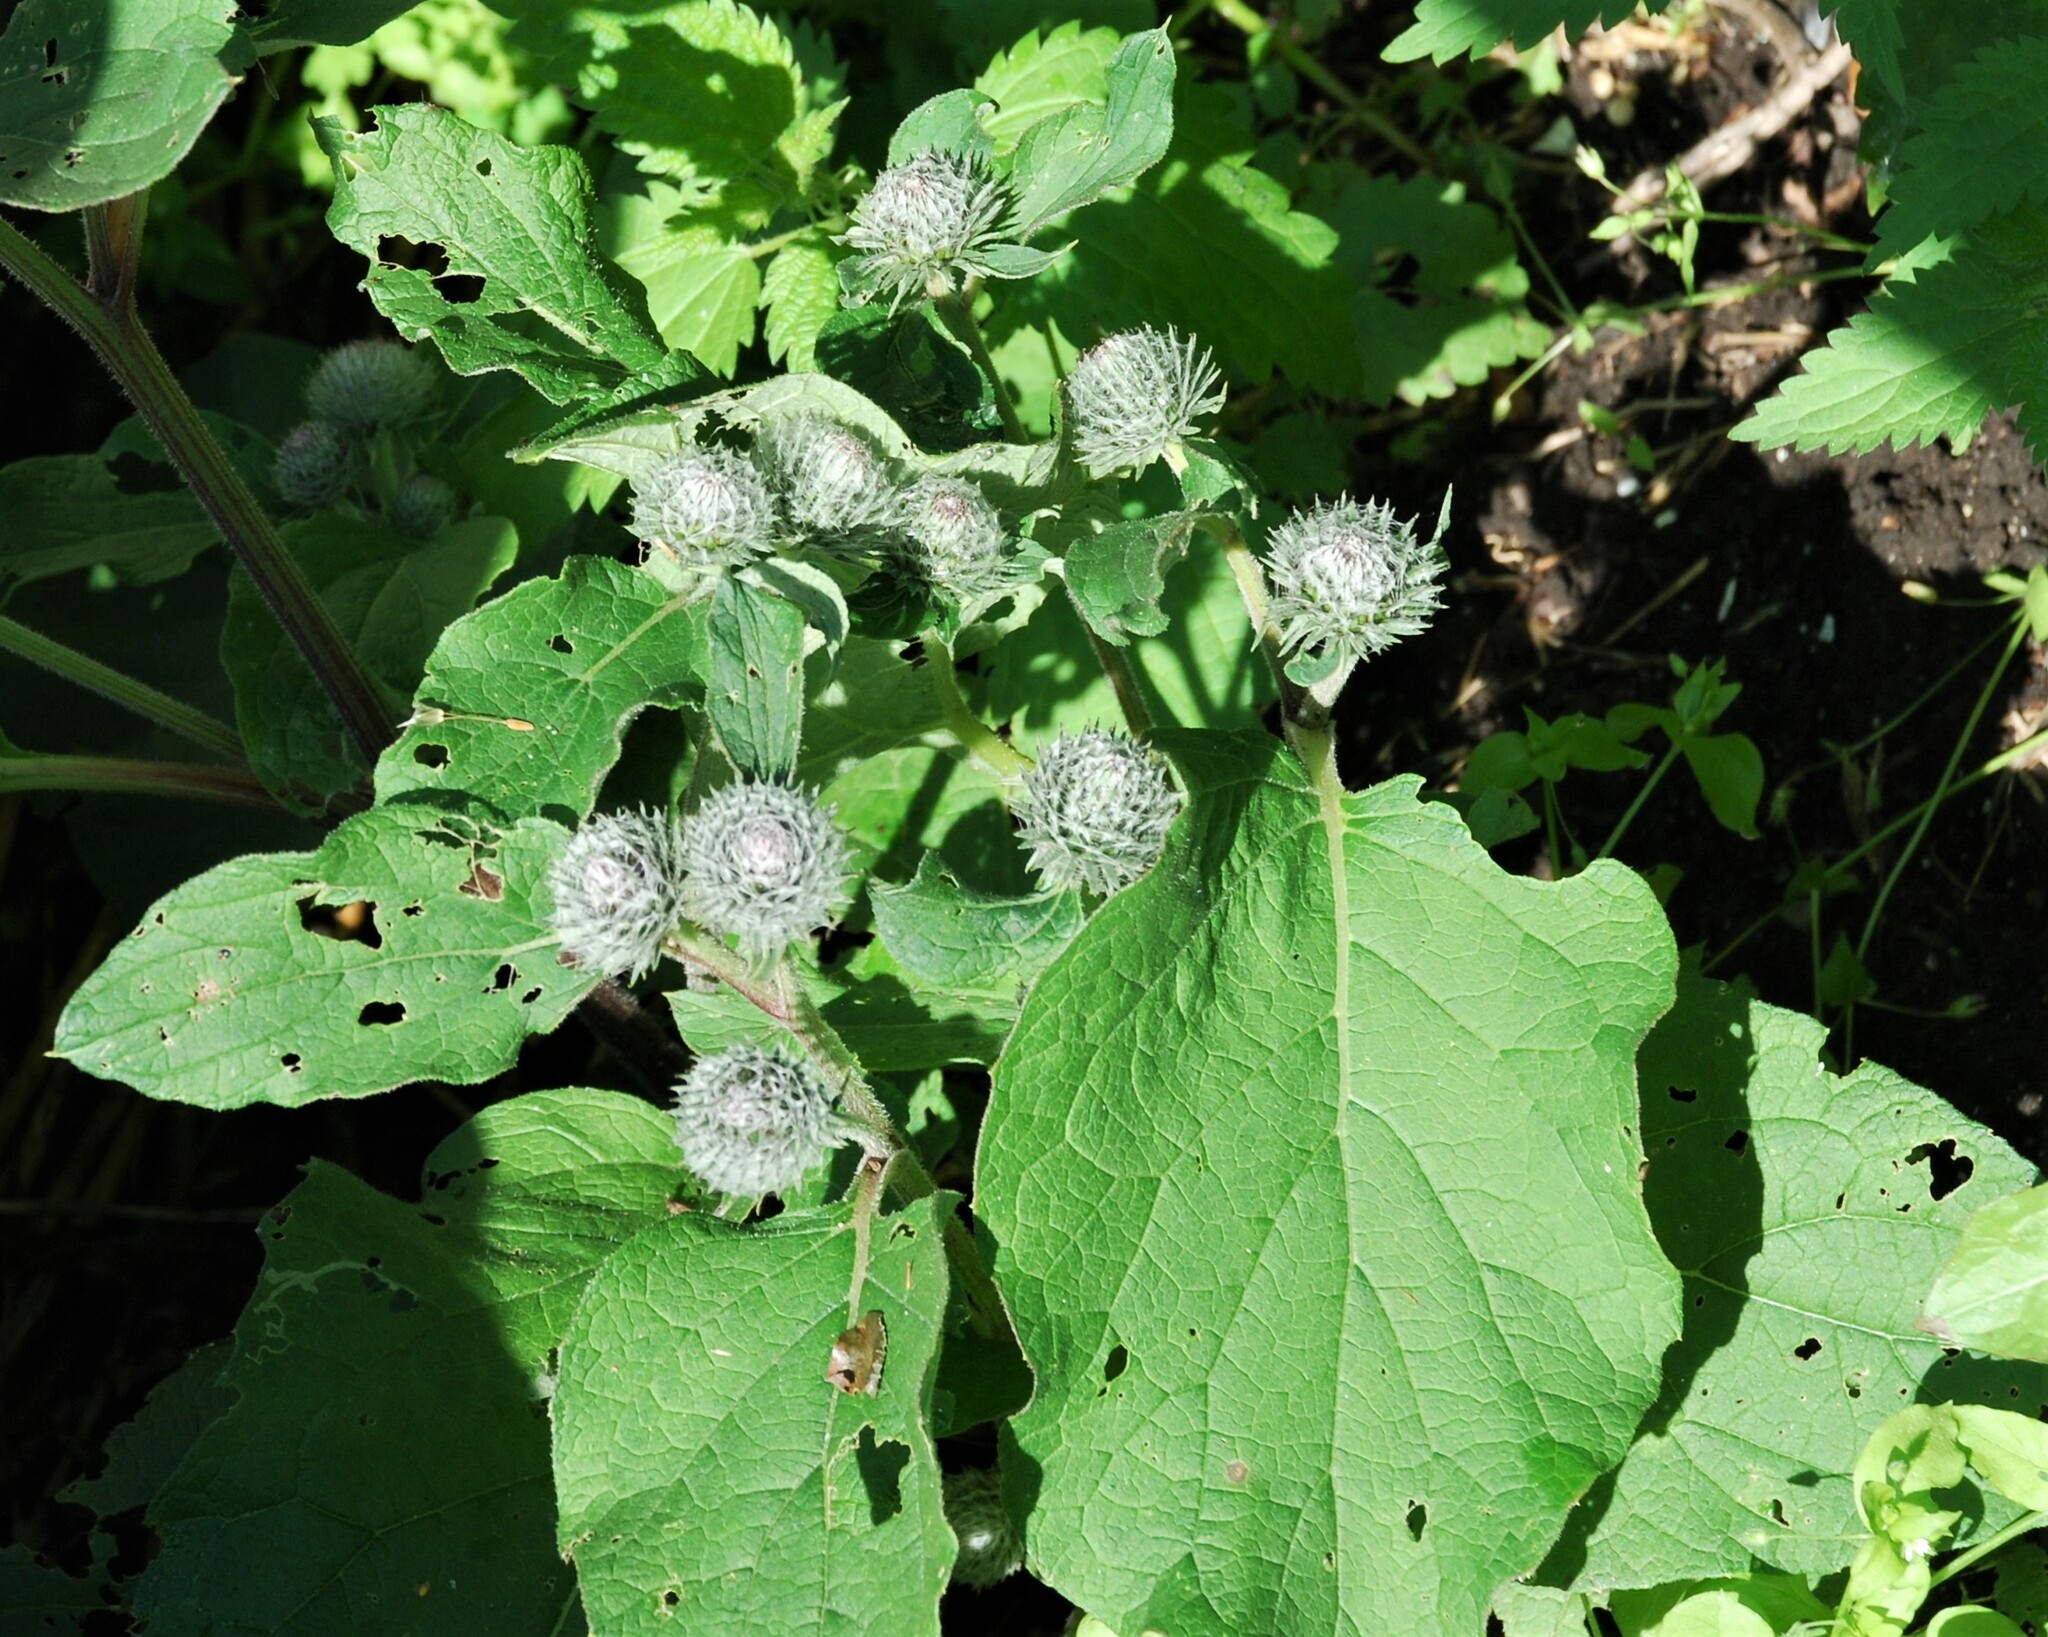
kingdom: Plantae
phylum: Tracheophyta
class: Magnoliopsida
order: Asterales
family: Asteraceae
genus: Arctium
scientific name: Arctium tomentosum
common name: Woolly burdock
